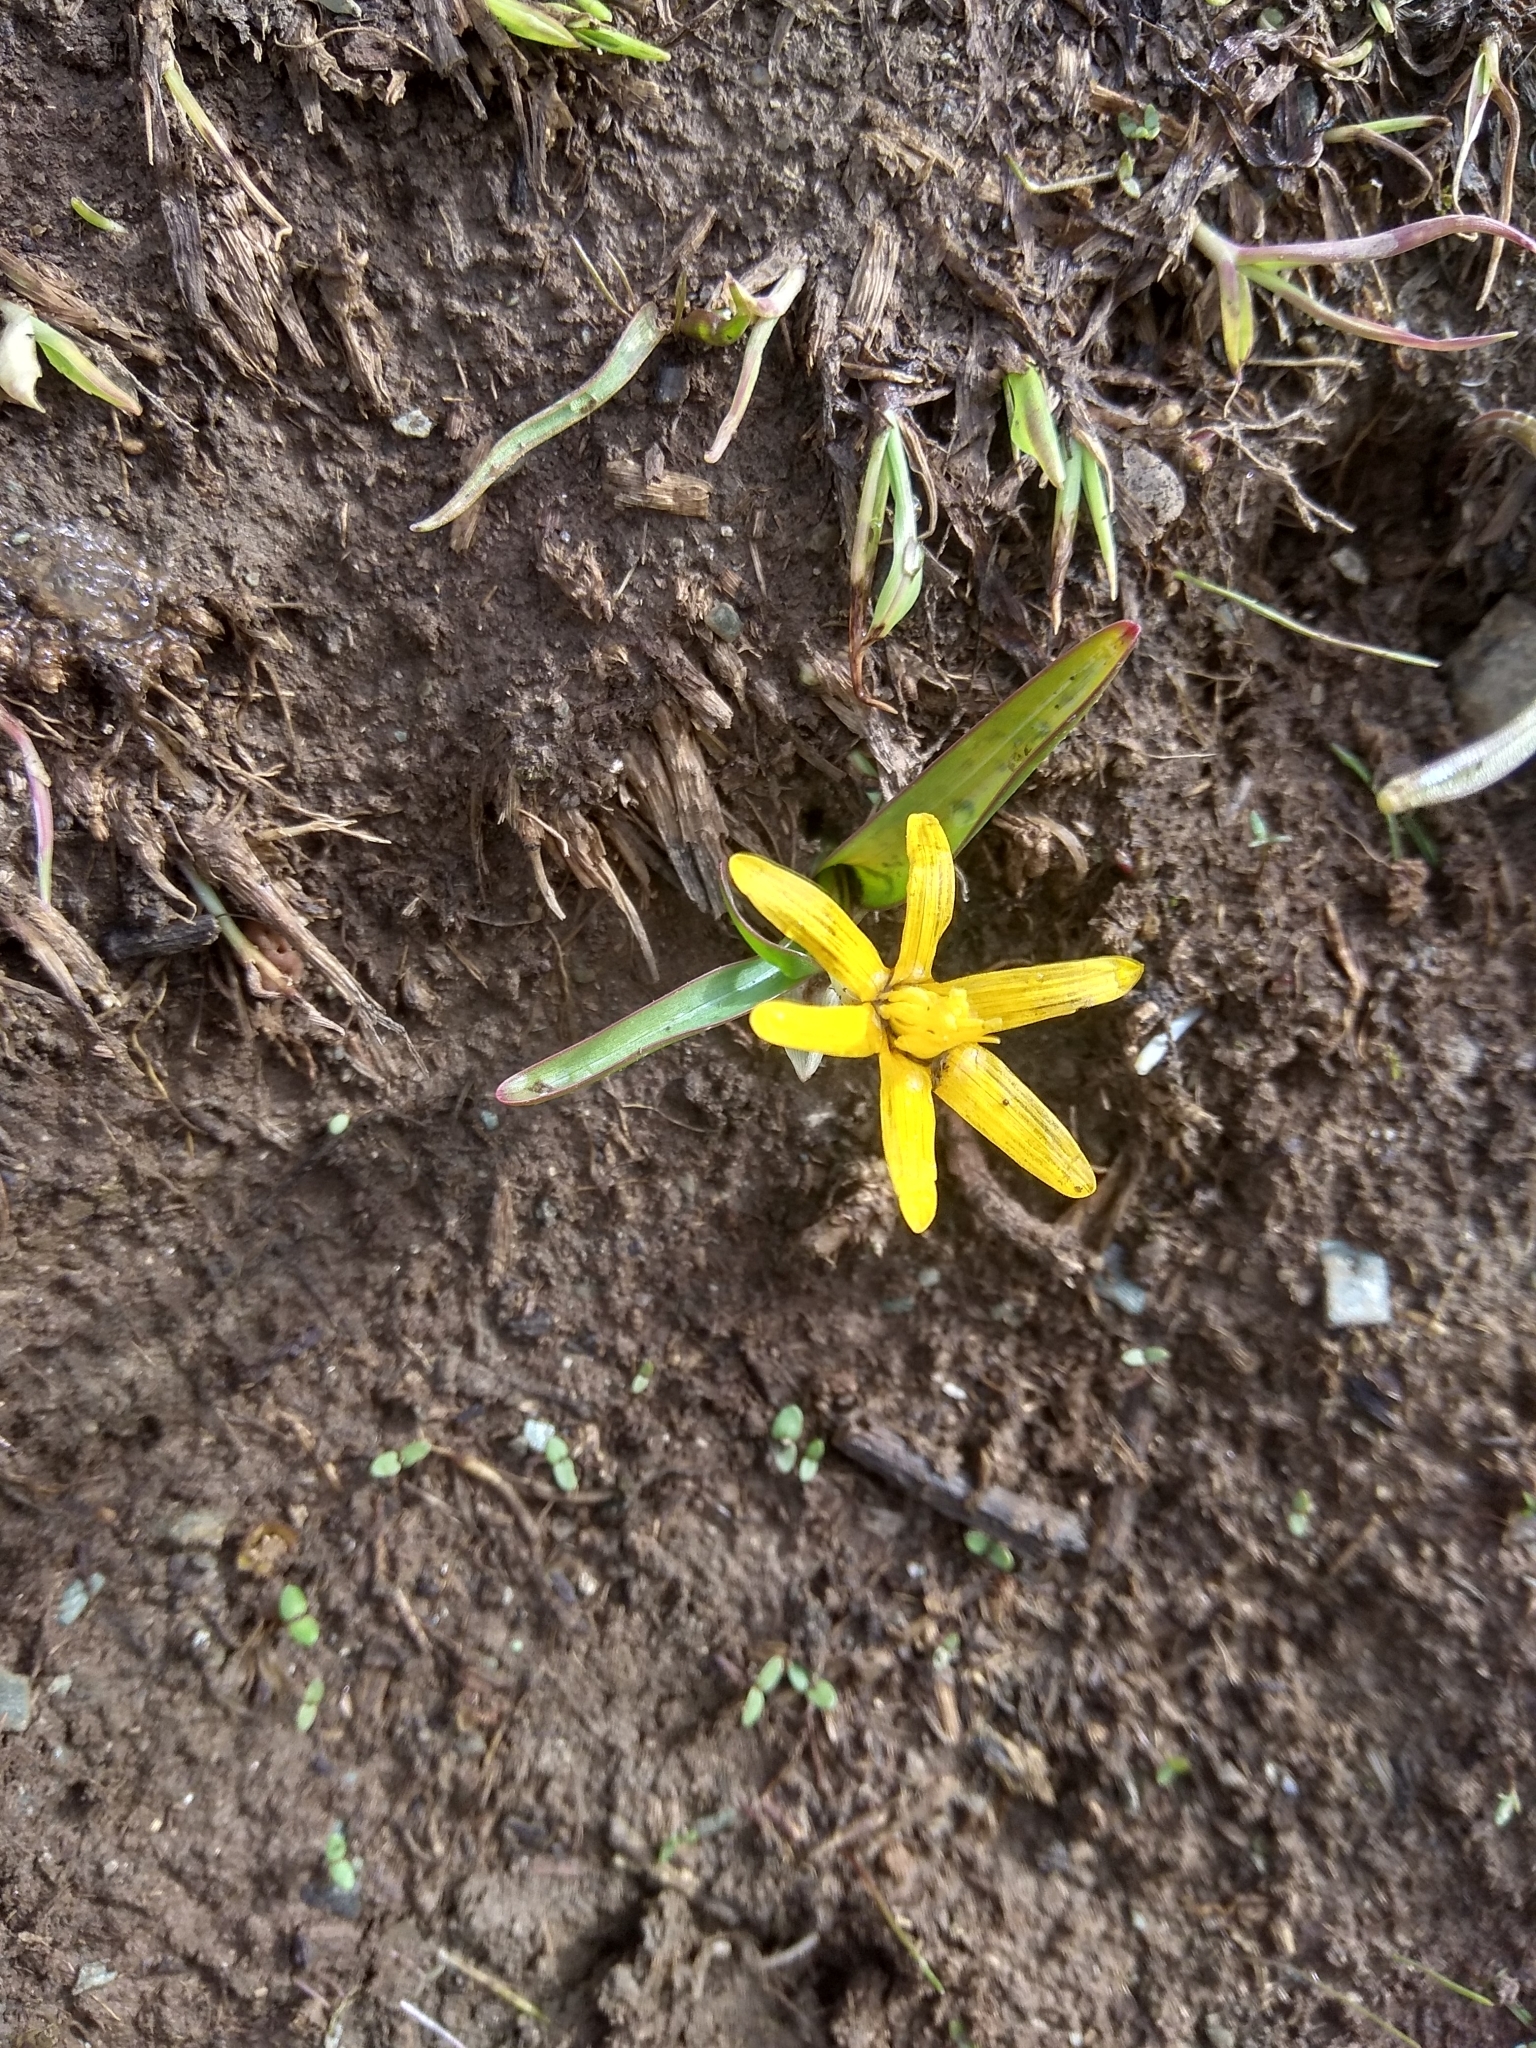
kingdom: Plantae
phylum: Tracheophyta
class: Liliopsida
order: Liliales
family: Colchicaceae
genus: Colchicum
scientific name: Colchicum luteum
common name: Indian colchicum
